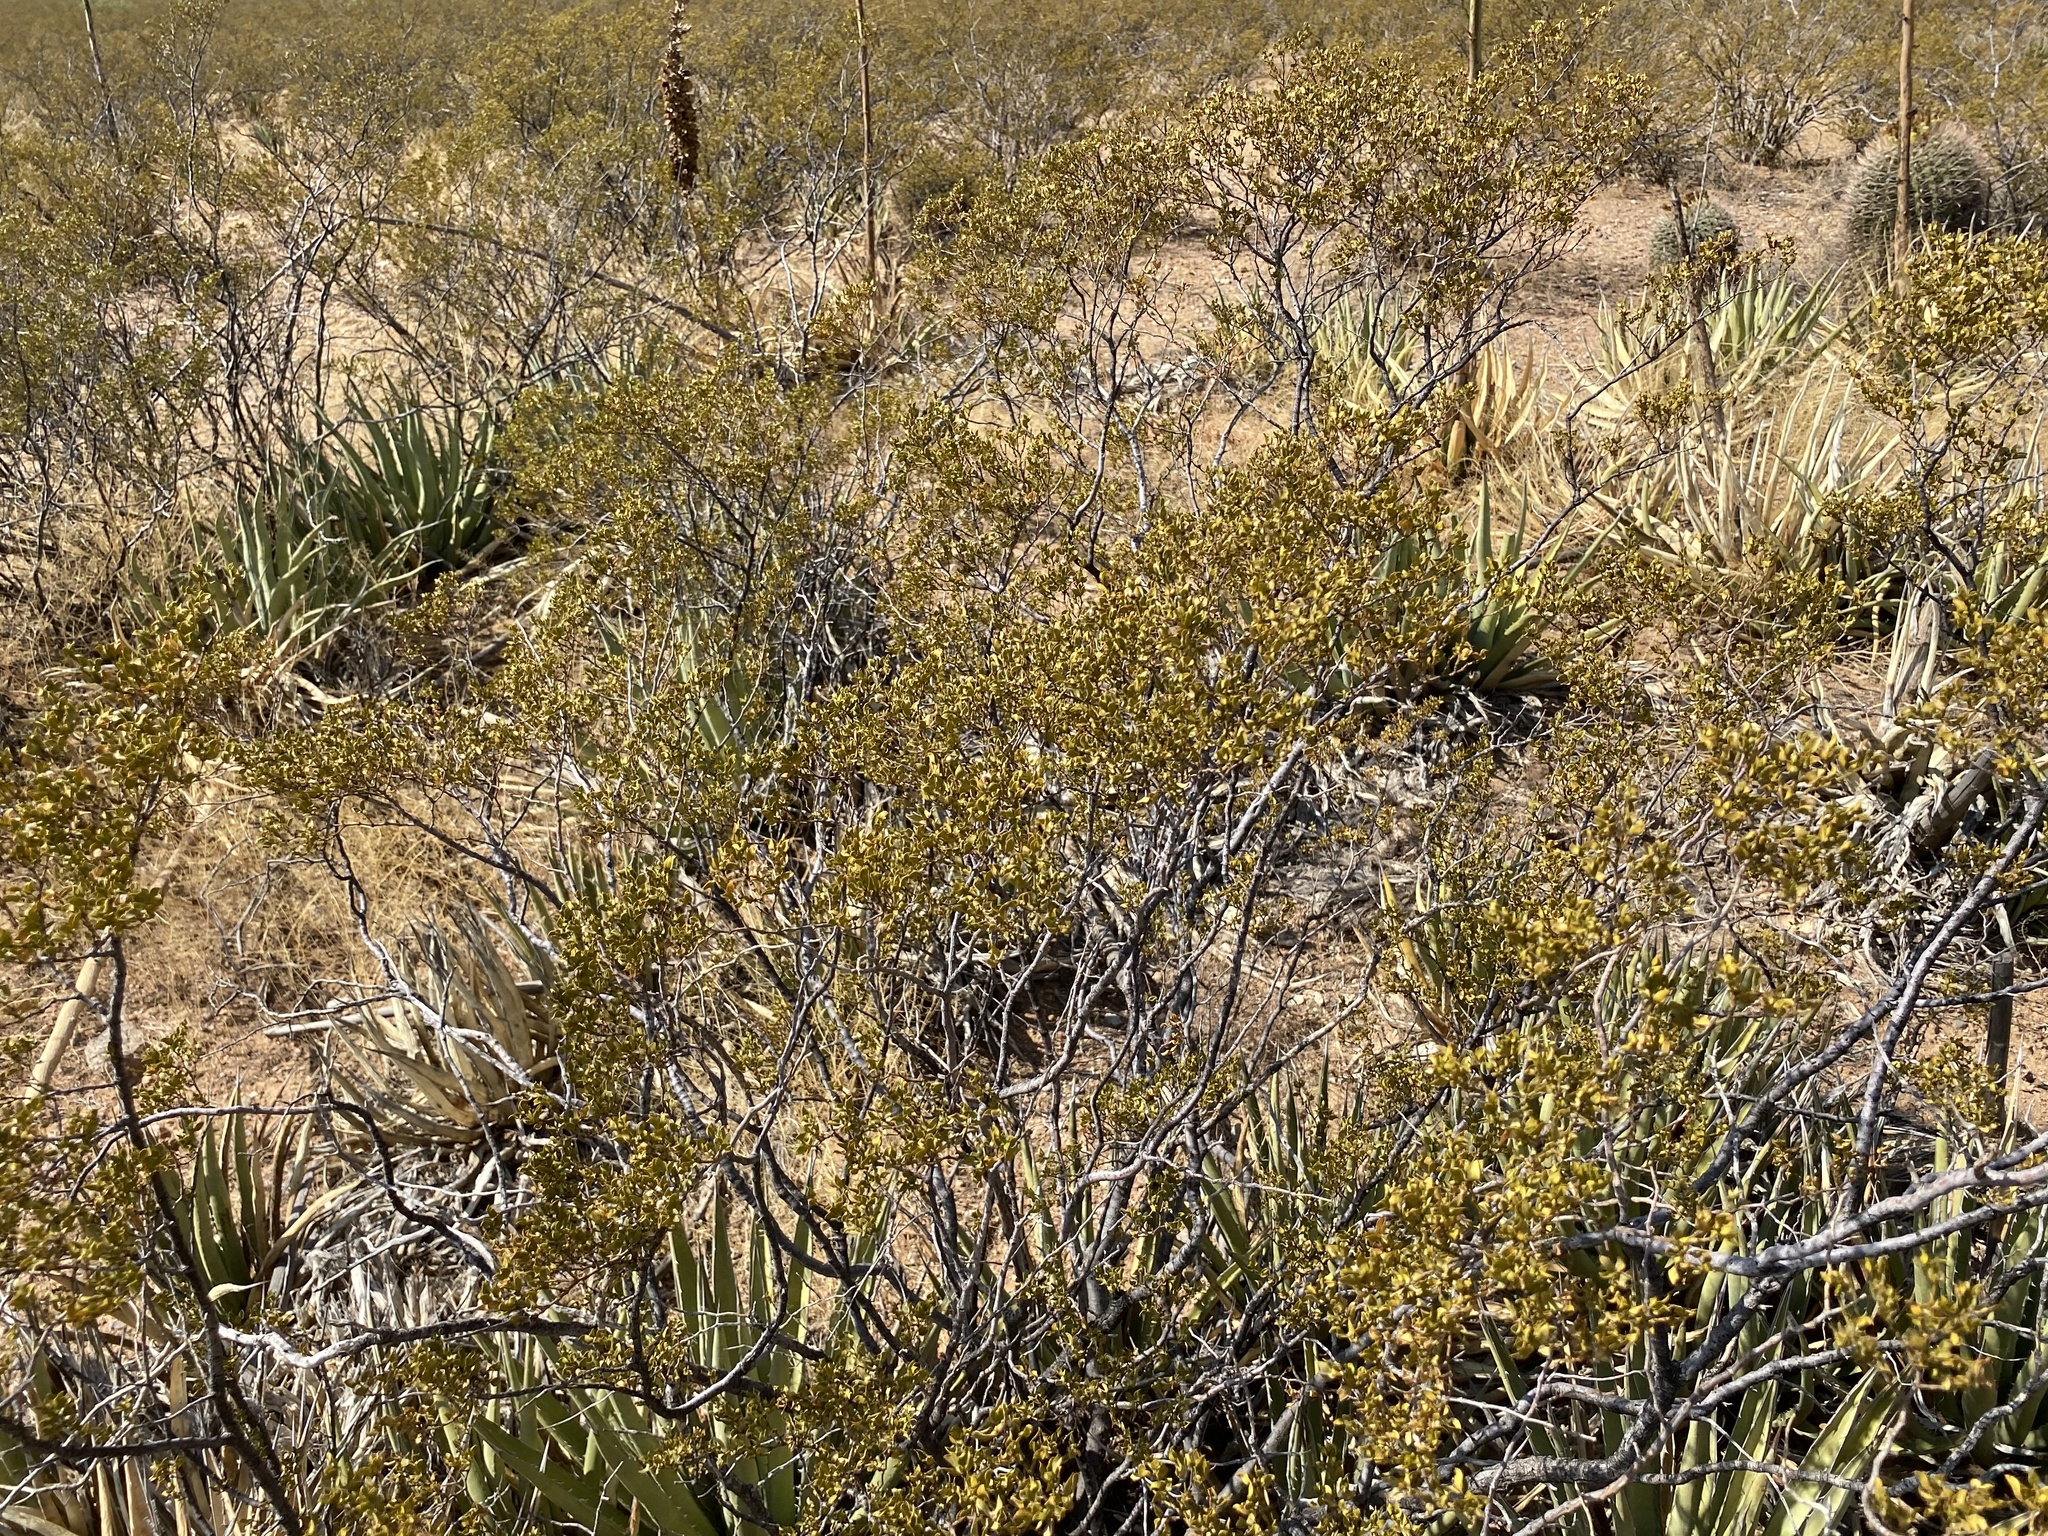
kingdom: Plantae
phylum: Tracheophyta
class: Magnoliopsida
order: Zygophyllales
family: Zygophyllaceae
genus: Larrea
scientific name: Larrea tridentata
